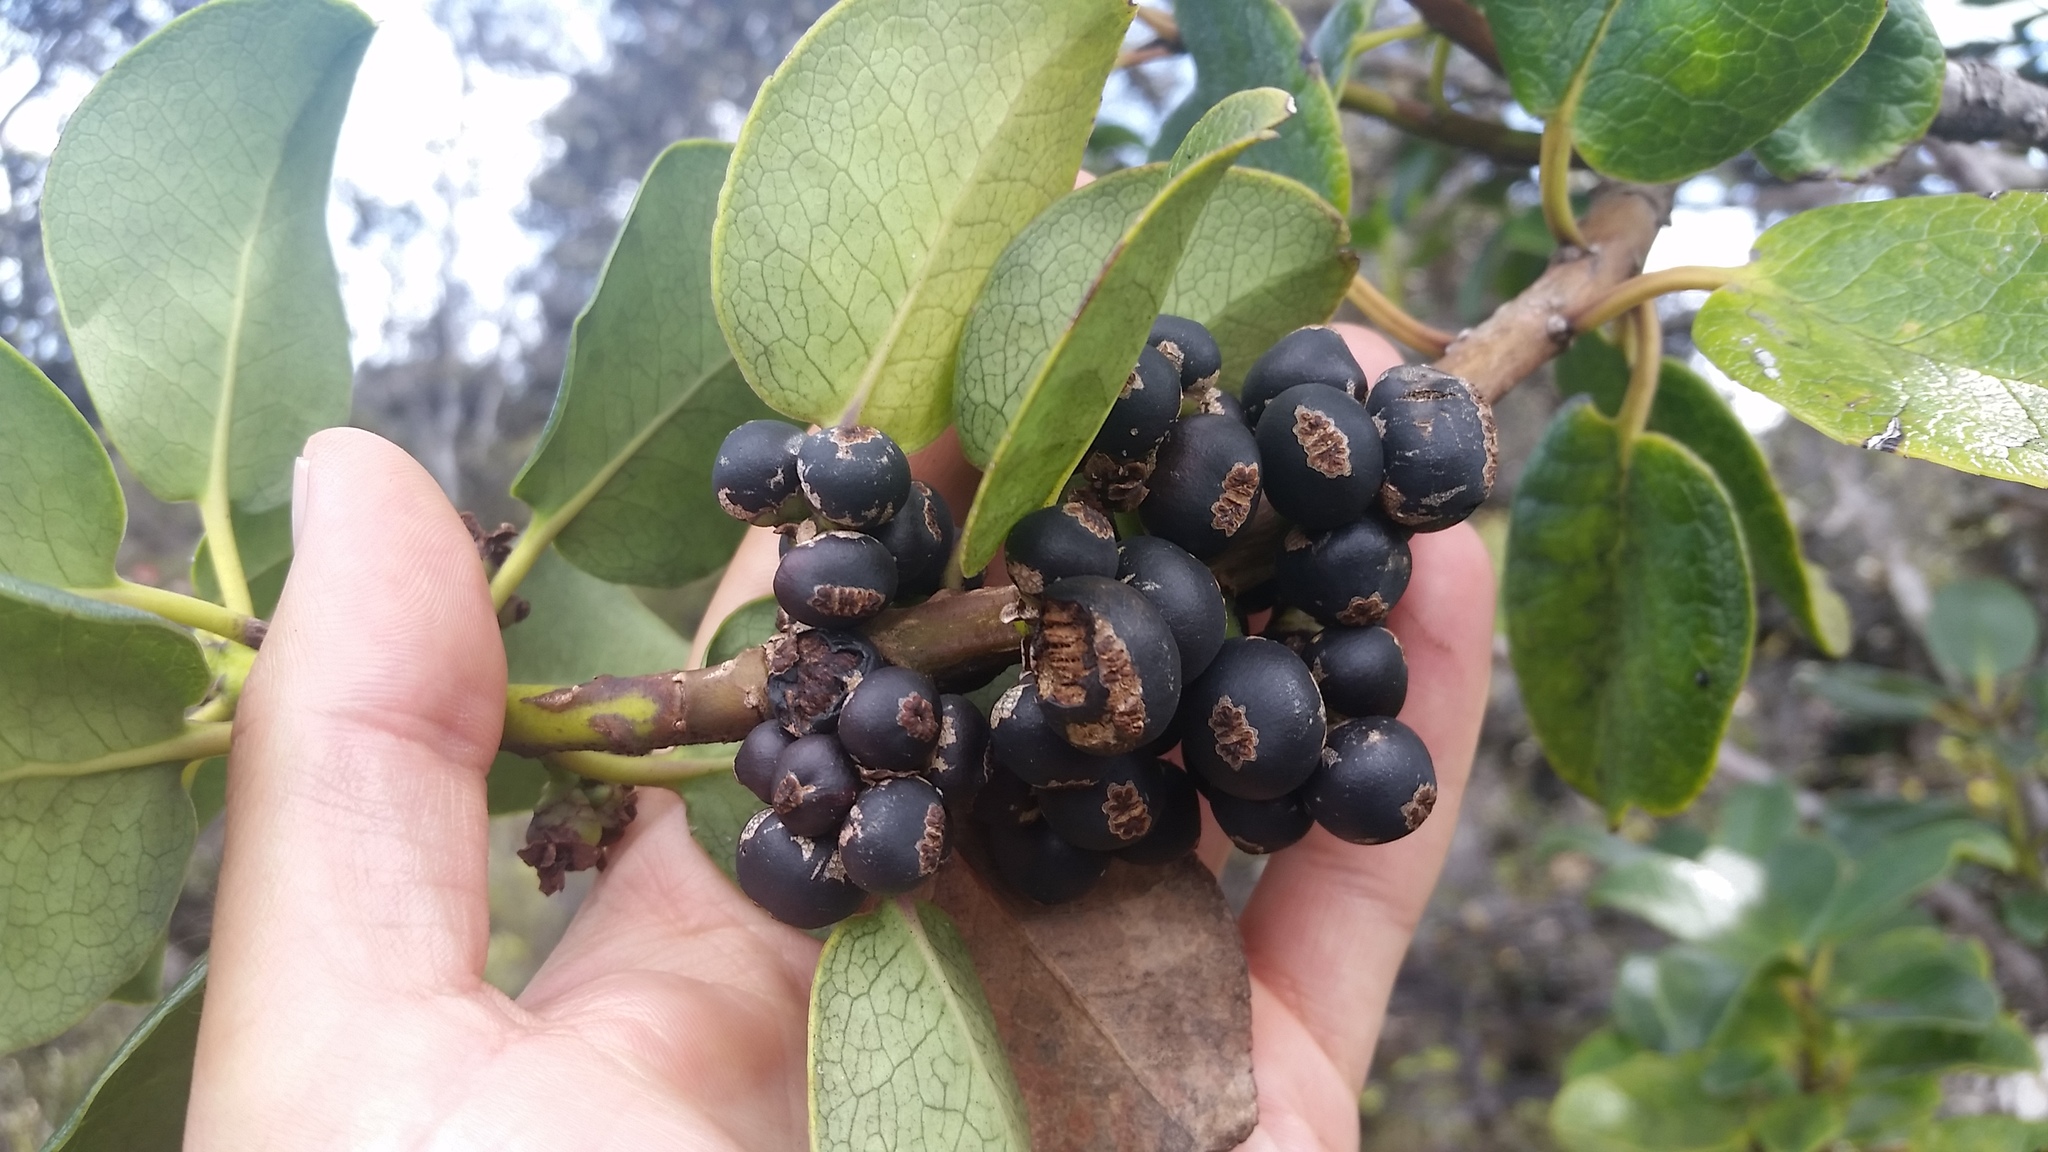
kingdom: Plantae
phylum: Tracheophyta
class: Magnoliopsida
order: Aquifoliales
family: Aquifoliaceae
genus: Ilex
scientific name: Ilex anomala
